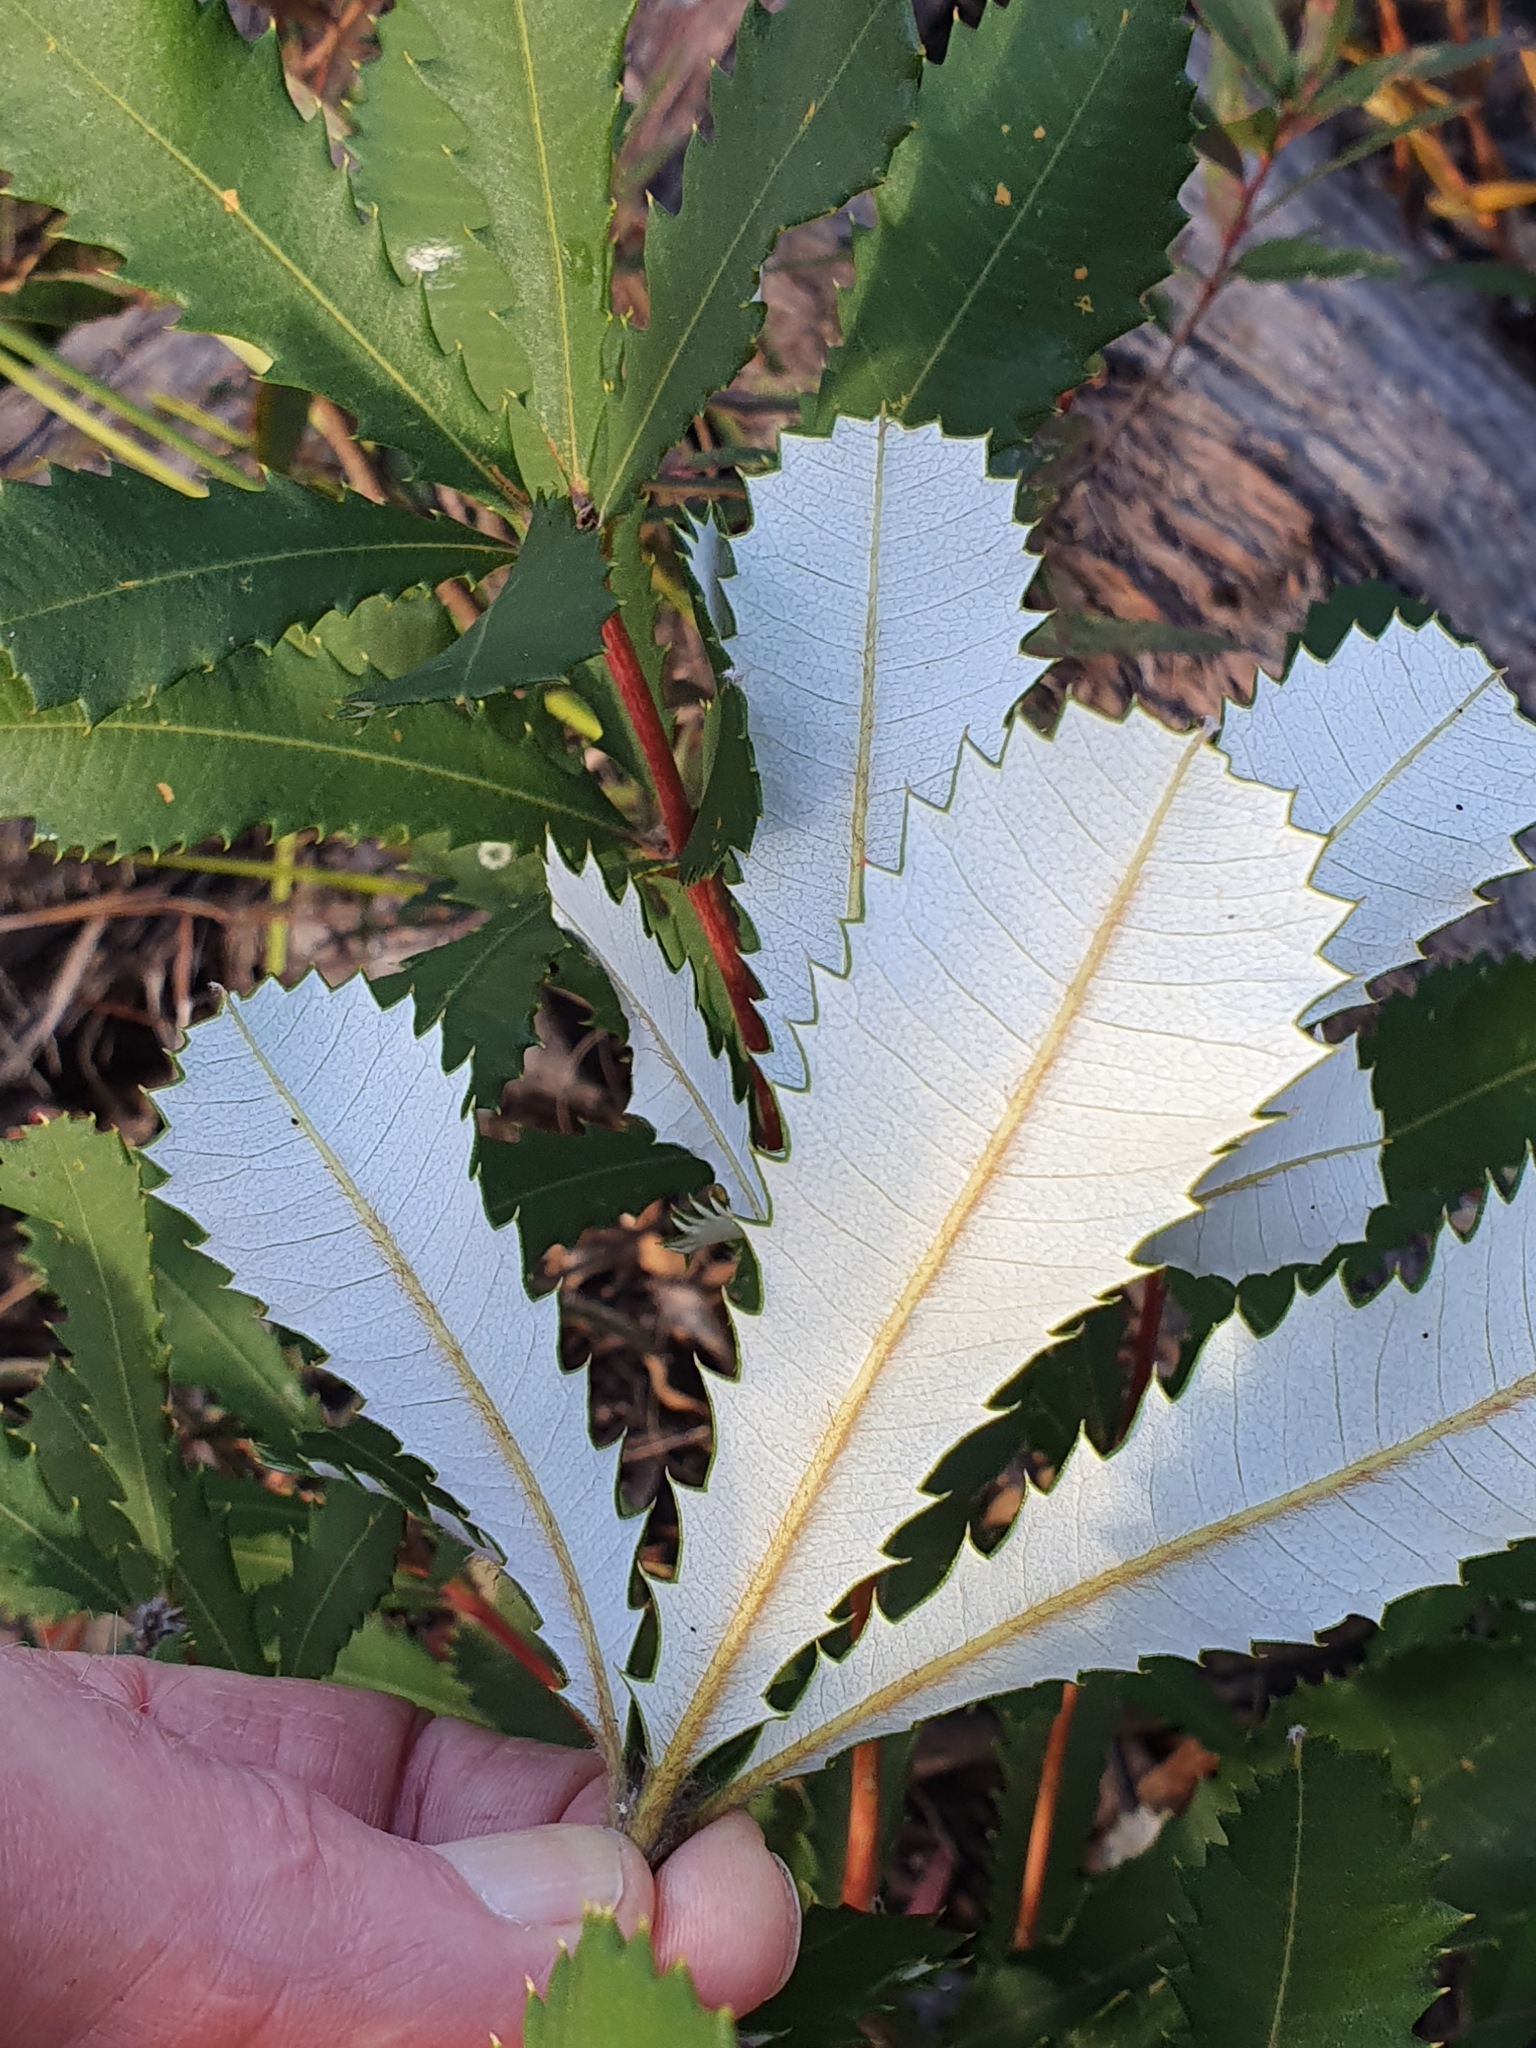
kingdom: Plantae
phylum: Tracheophyta
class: Magnoliopsida
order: Proteales
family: Proteaceae
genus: Banksia
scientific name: Banksia paludosa
